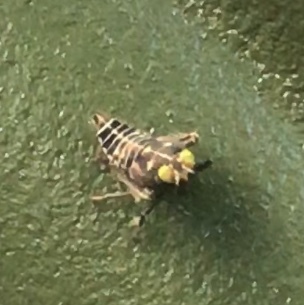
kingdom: Animalia
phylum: Arthropoda
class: Insecta
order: Hemiptera
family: Cicadellidae
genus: Jikradia
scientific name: Jikradia olitoria
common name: Coppery leafhopper
